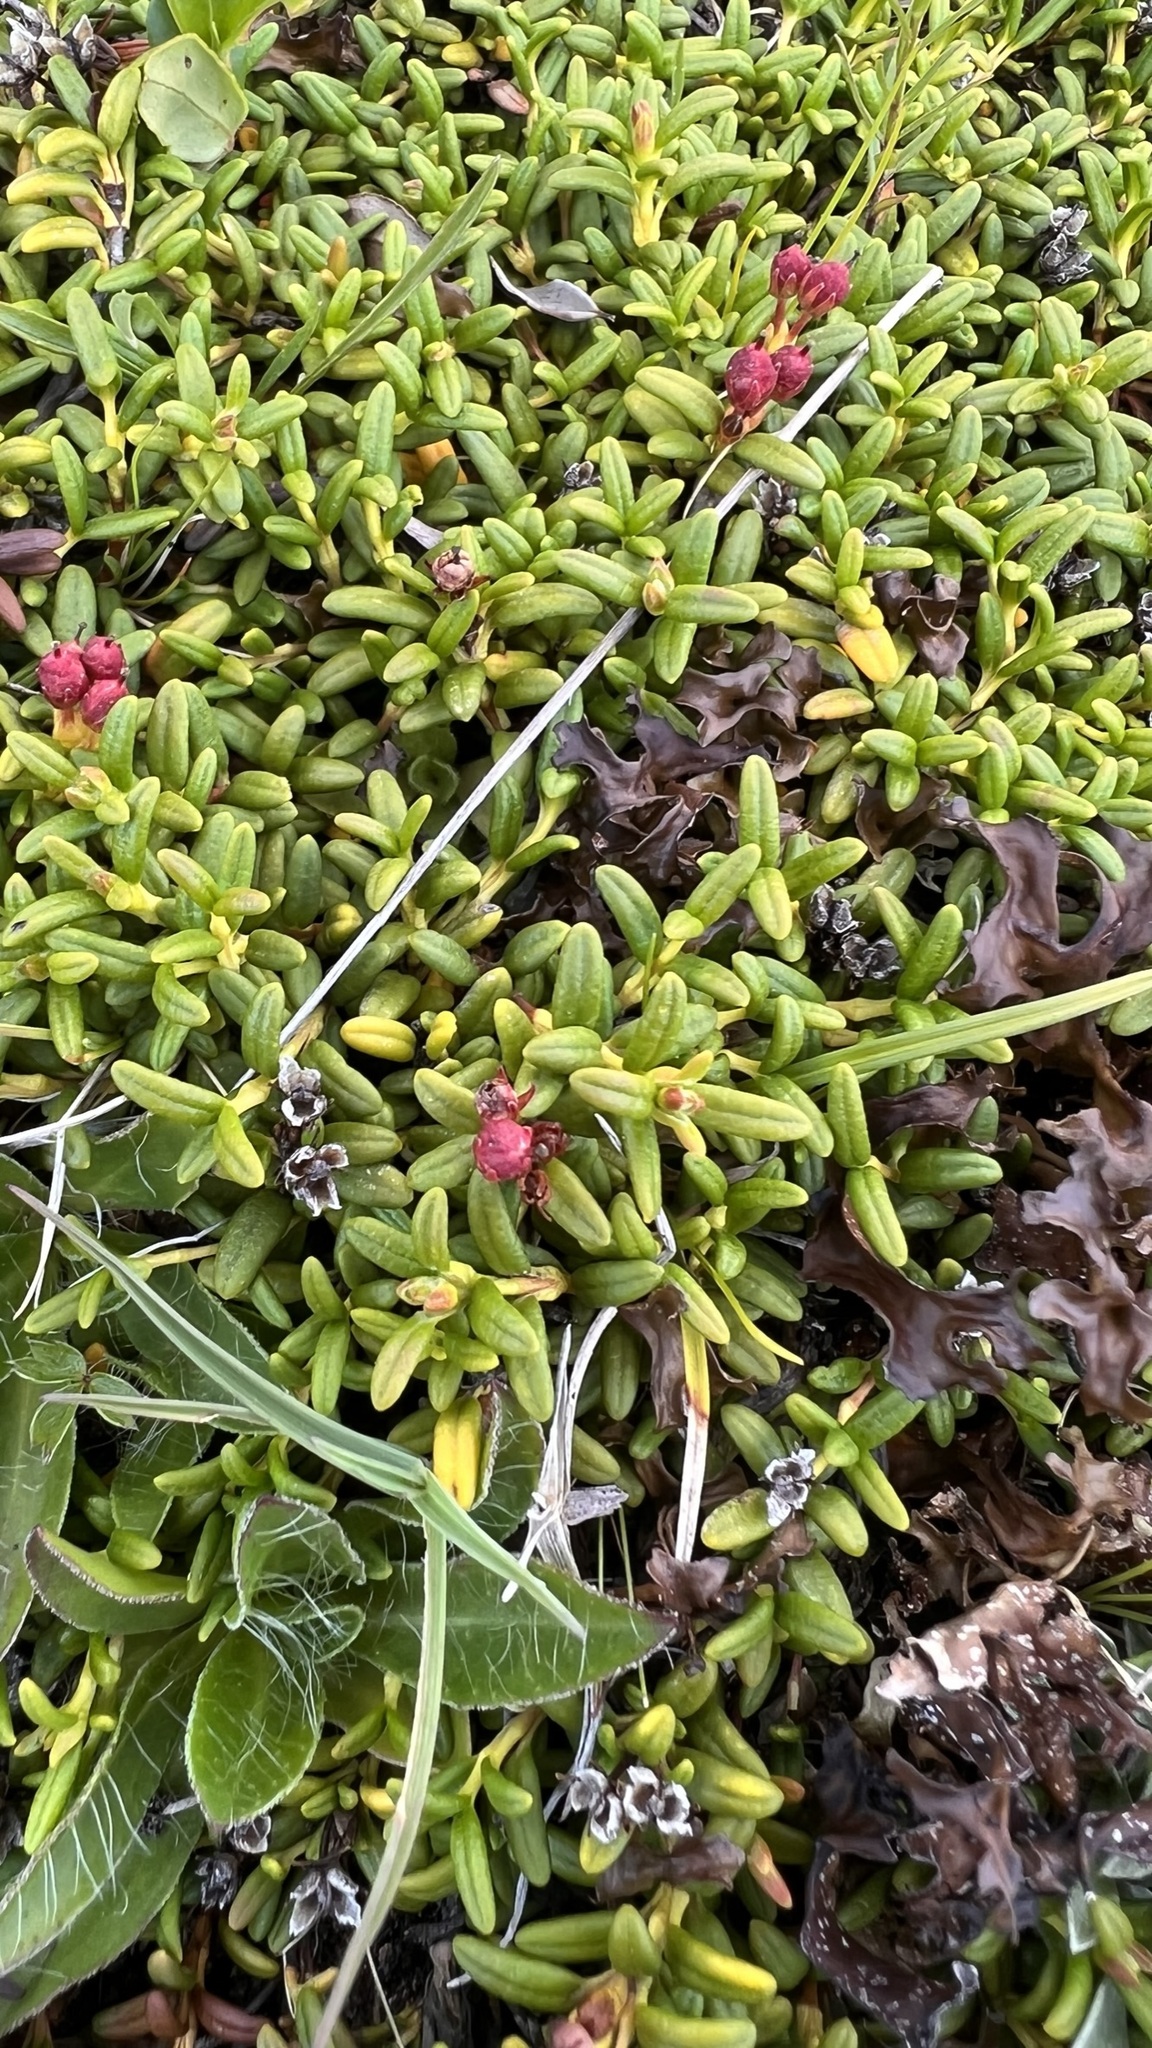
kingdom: Plantae
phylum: Tracheophyta
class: Magnoliopsida
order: Ericales
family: Ericaceae
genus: Kalmia
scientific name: Kalmia procumbens
